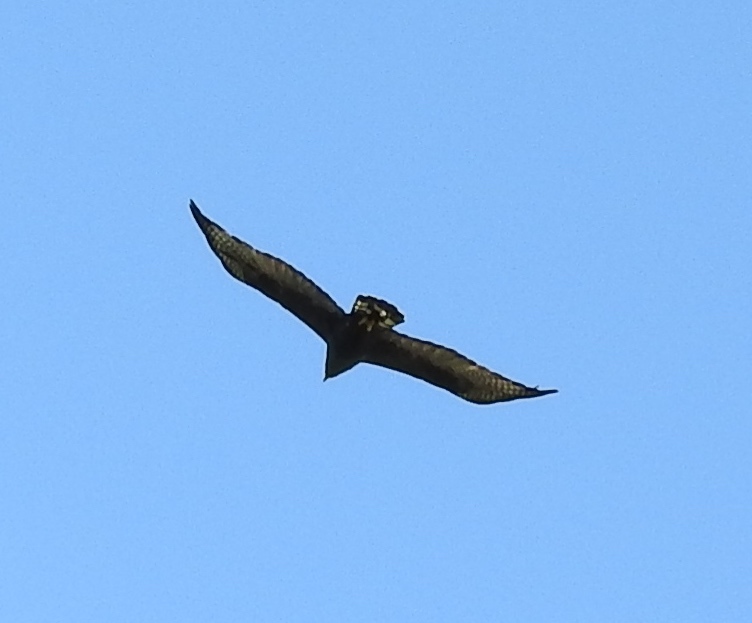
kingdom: Animalia
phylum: Chordata
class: Aves
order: Accipitriformes
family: Accipitridae
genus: Buteo
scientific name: Buteo albonotatus
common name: Zone-tailed hawk
